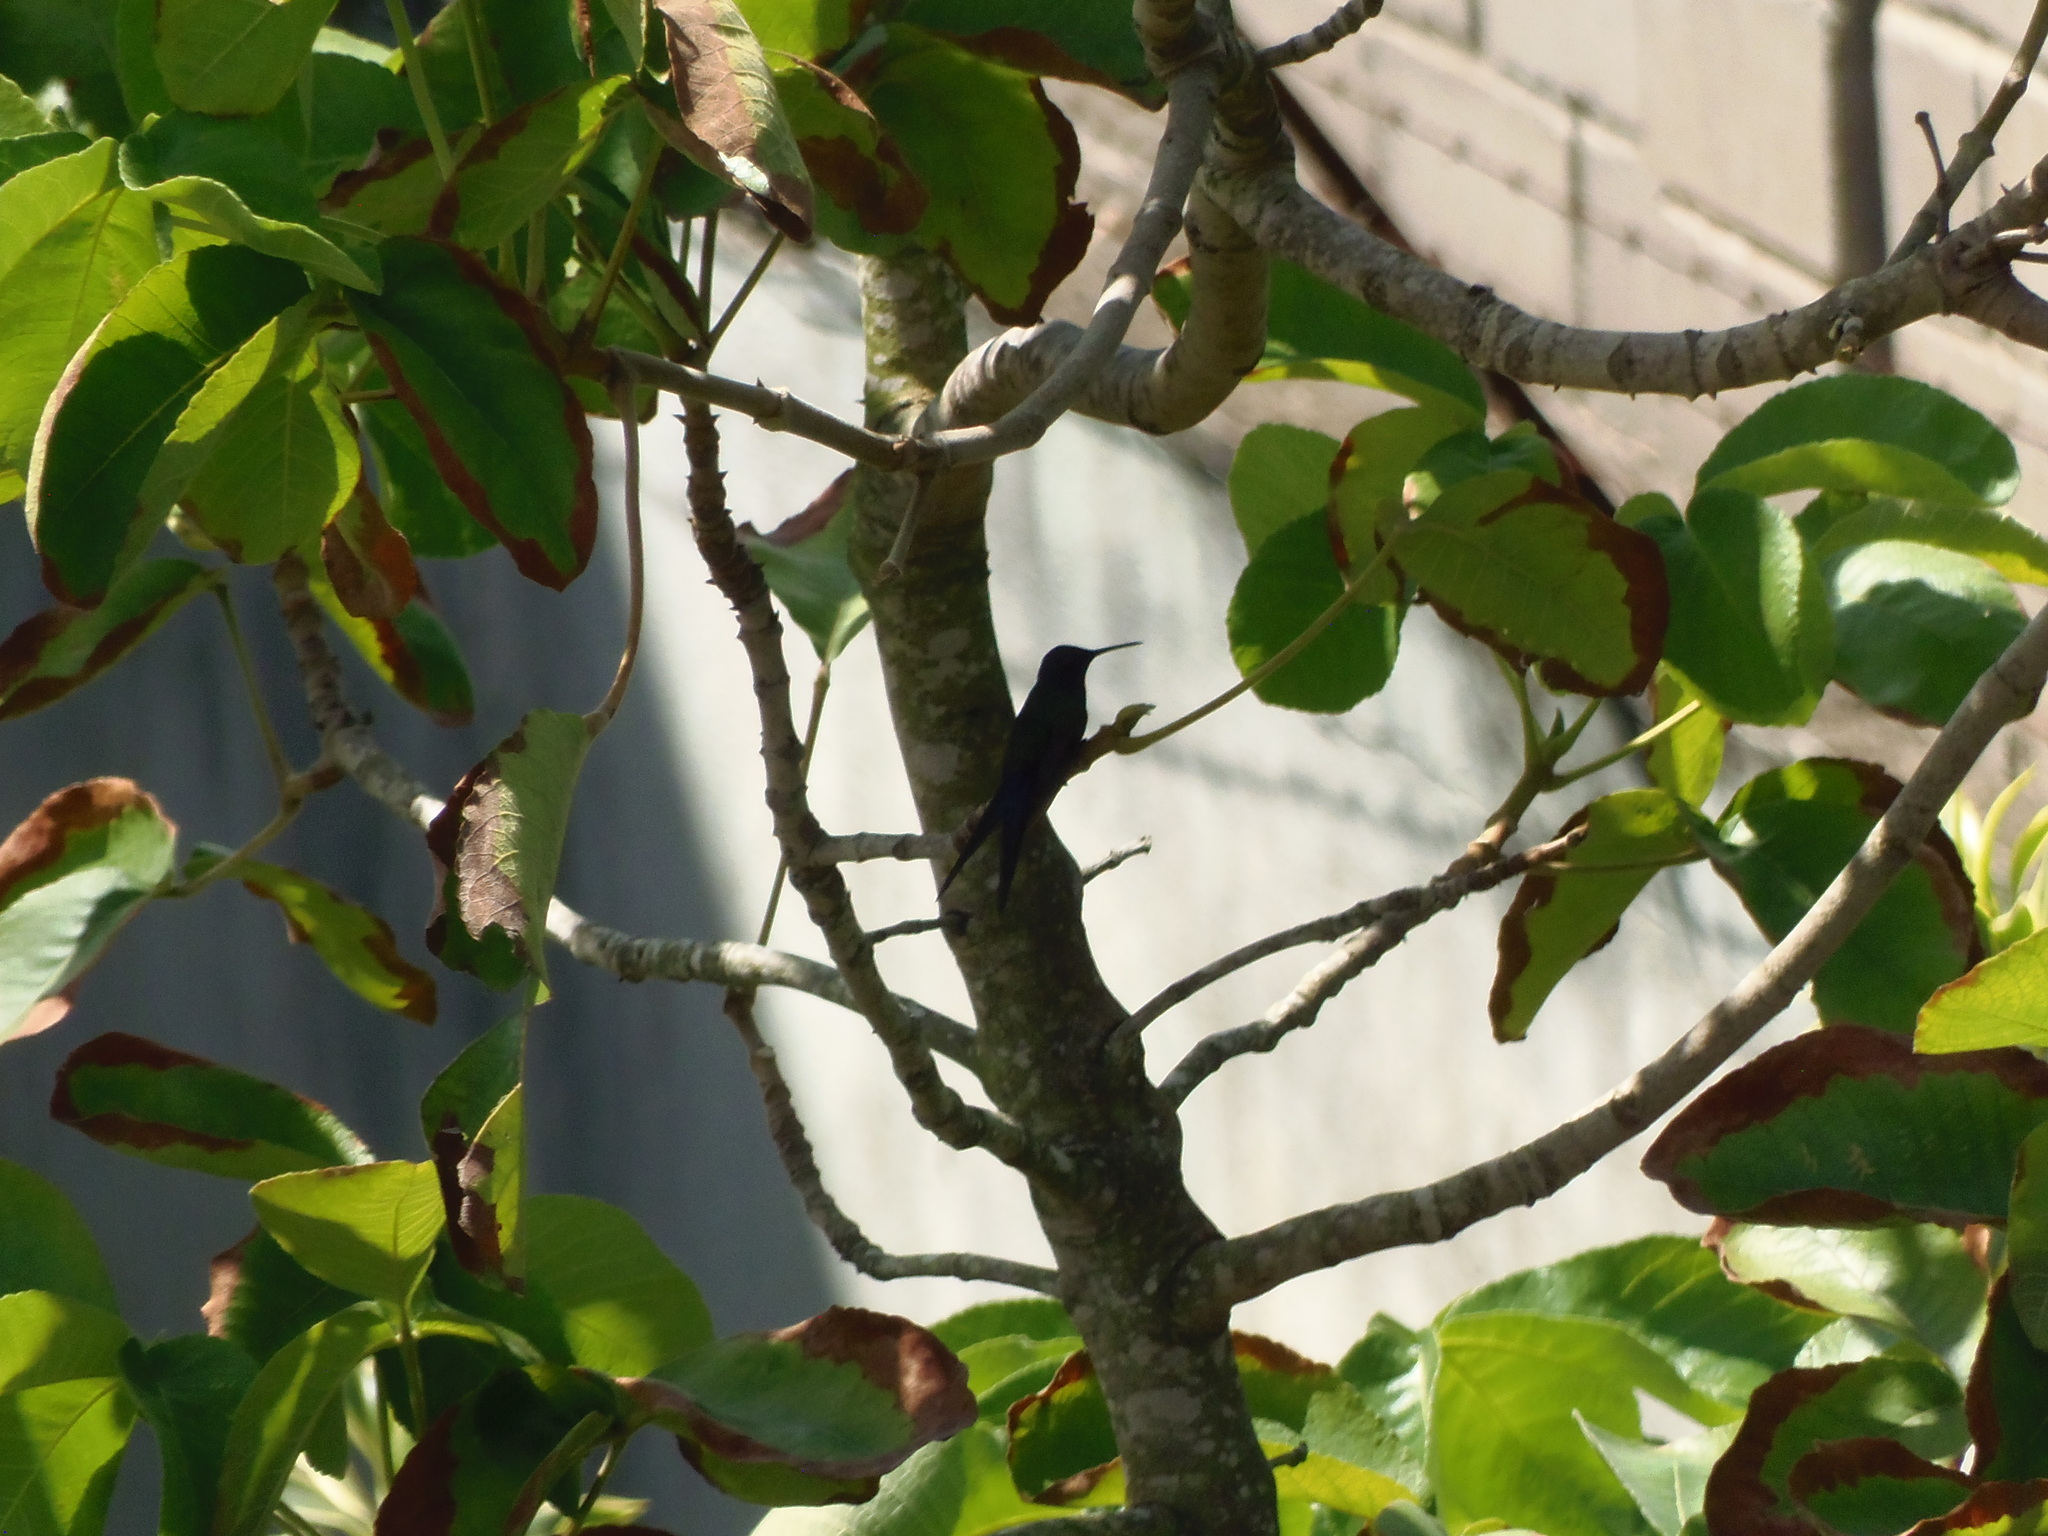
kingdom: Animalia
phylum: Chordata
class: Aves
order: Apodiformes
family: Trochilidae
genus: Eupetomena
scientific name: Eupetomena macroura
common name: Swallow-tailed hummingbird
